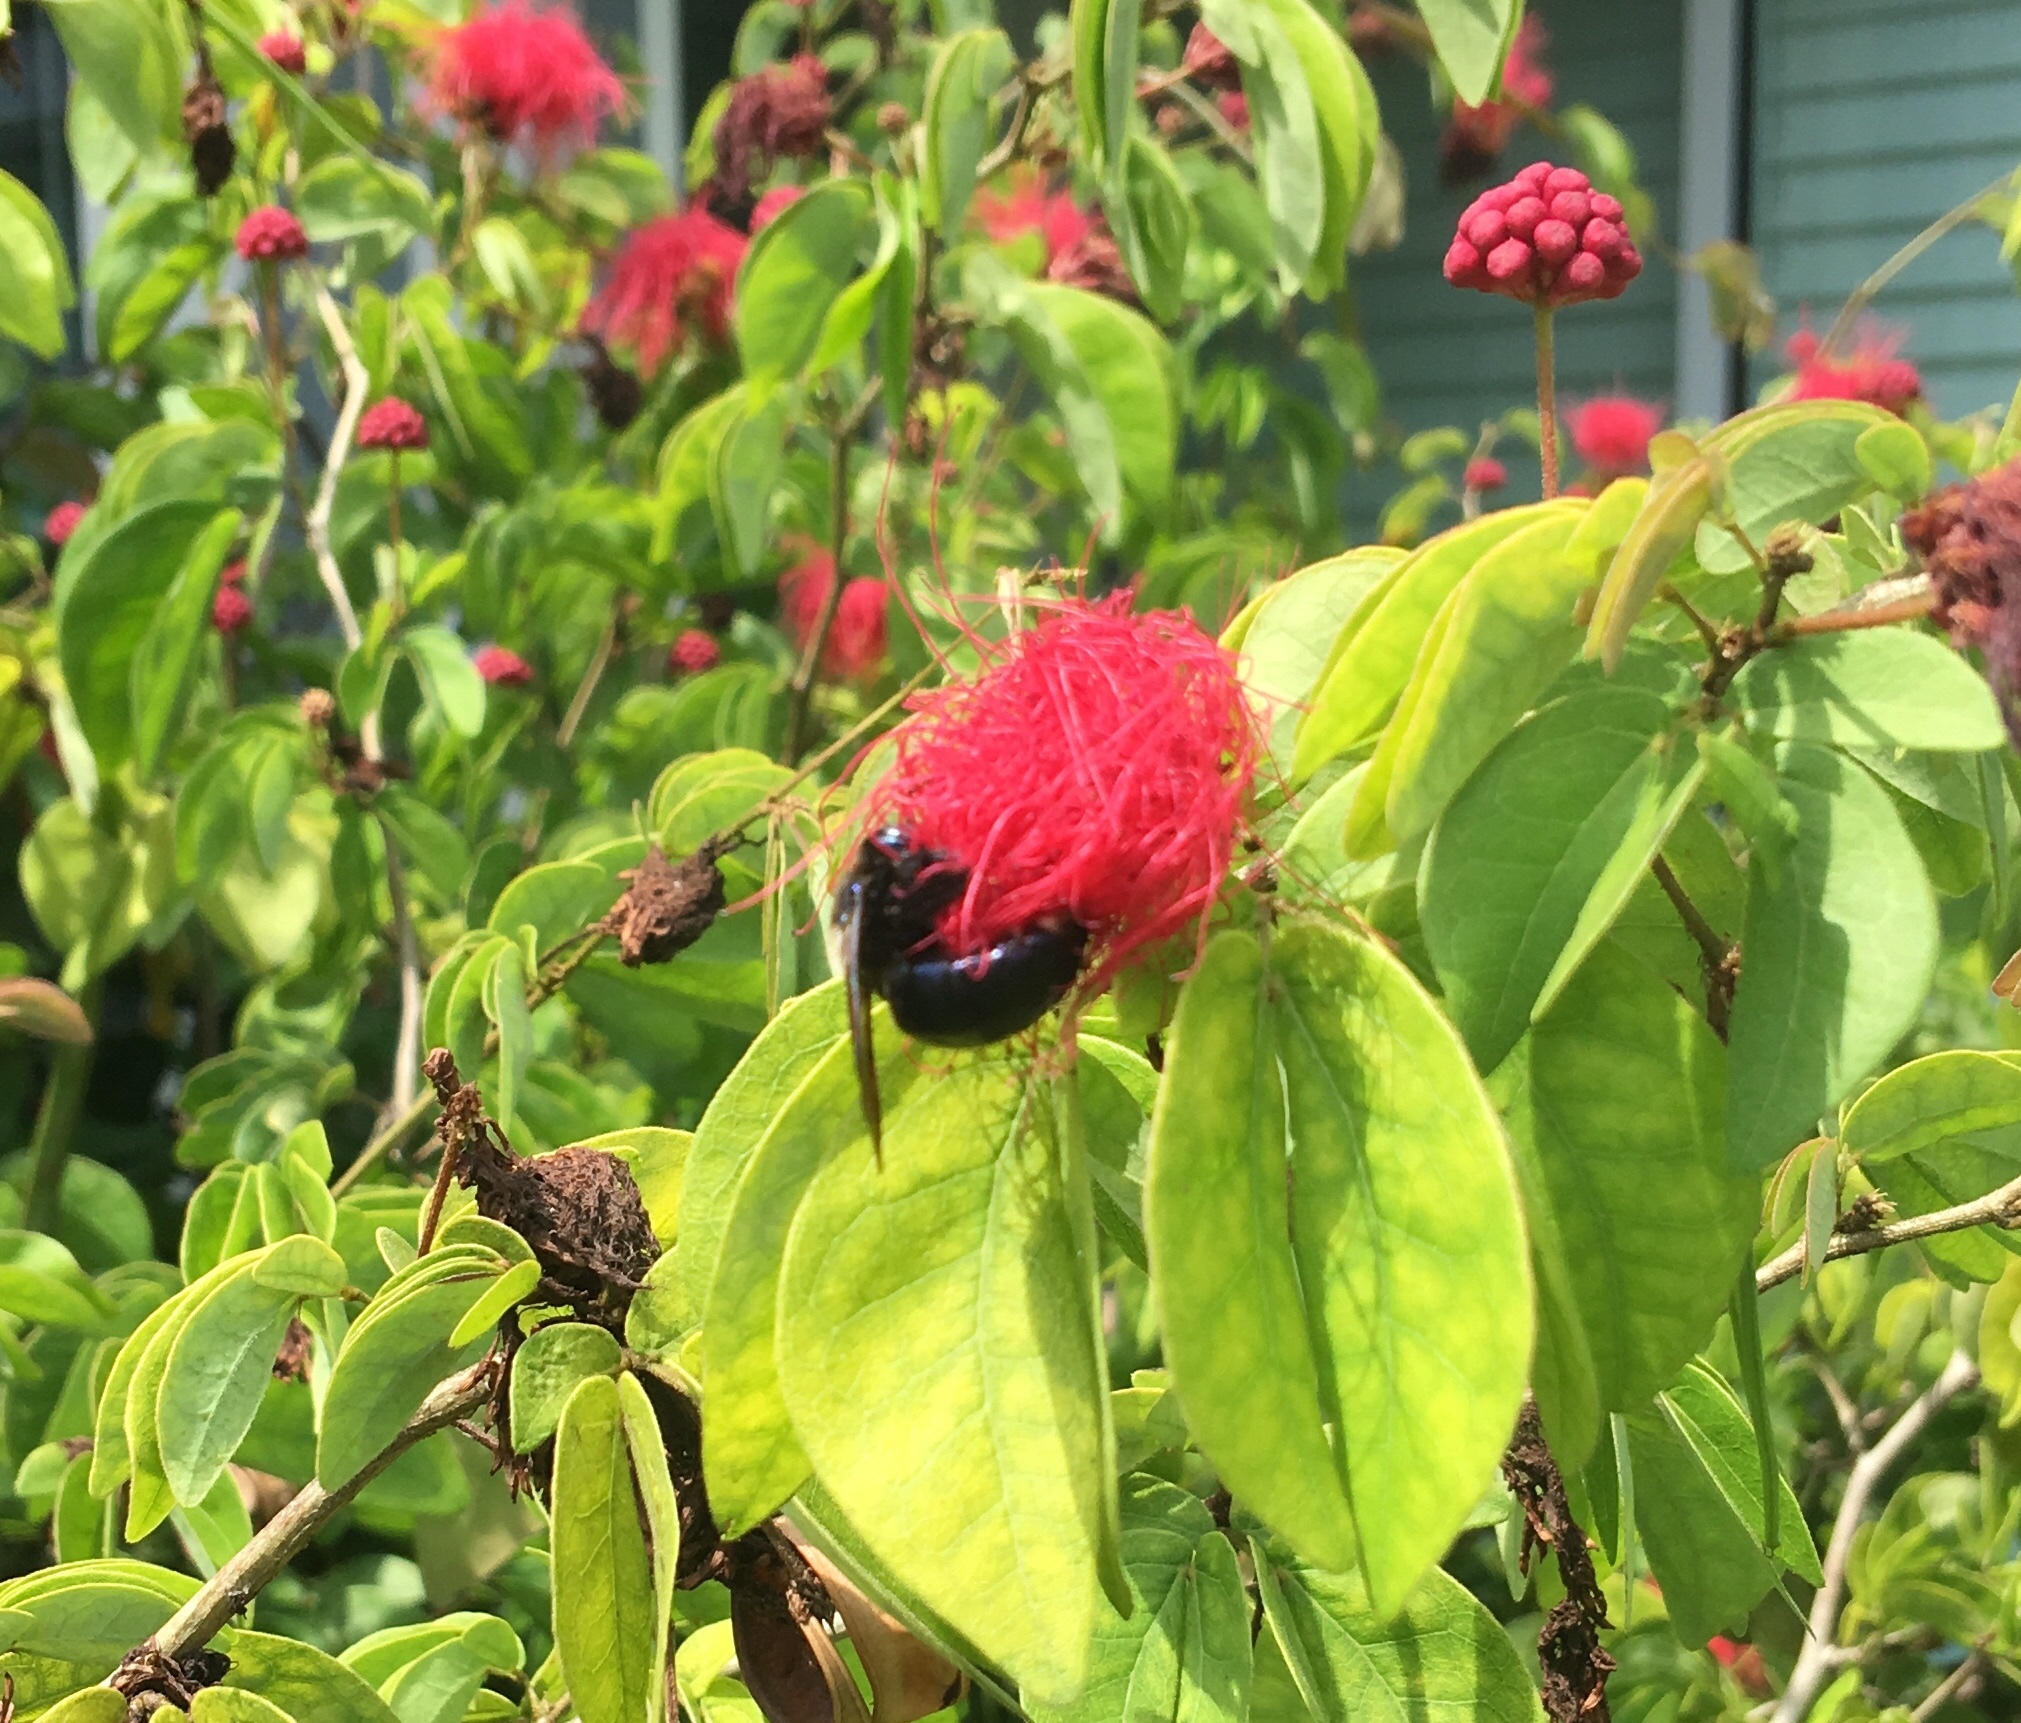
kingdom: Animalia
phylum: Arthropoda
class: Insecta
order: Hymenoptera
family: Apidae
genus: Xylocopa
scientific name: Xylocopa micans
